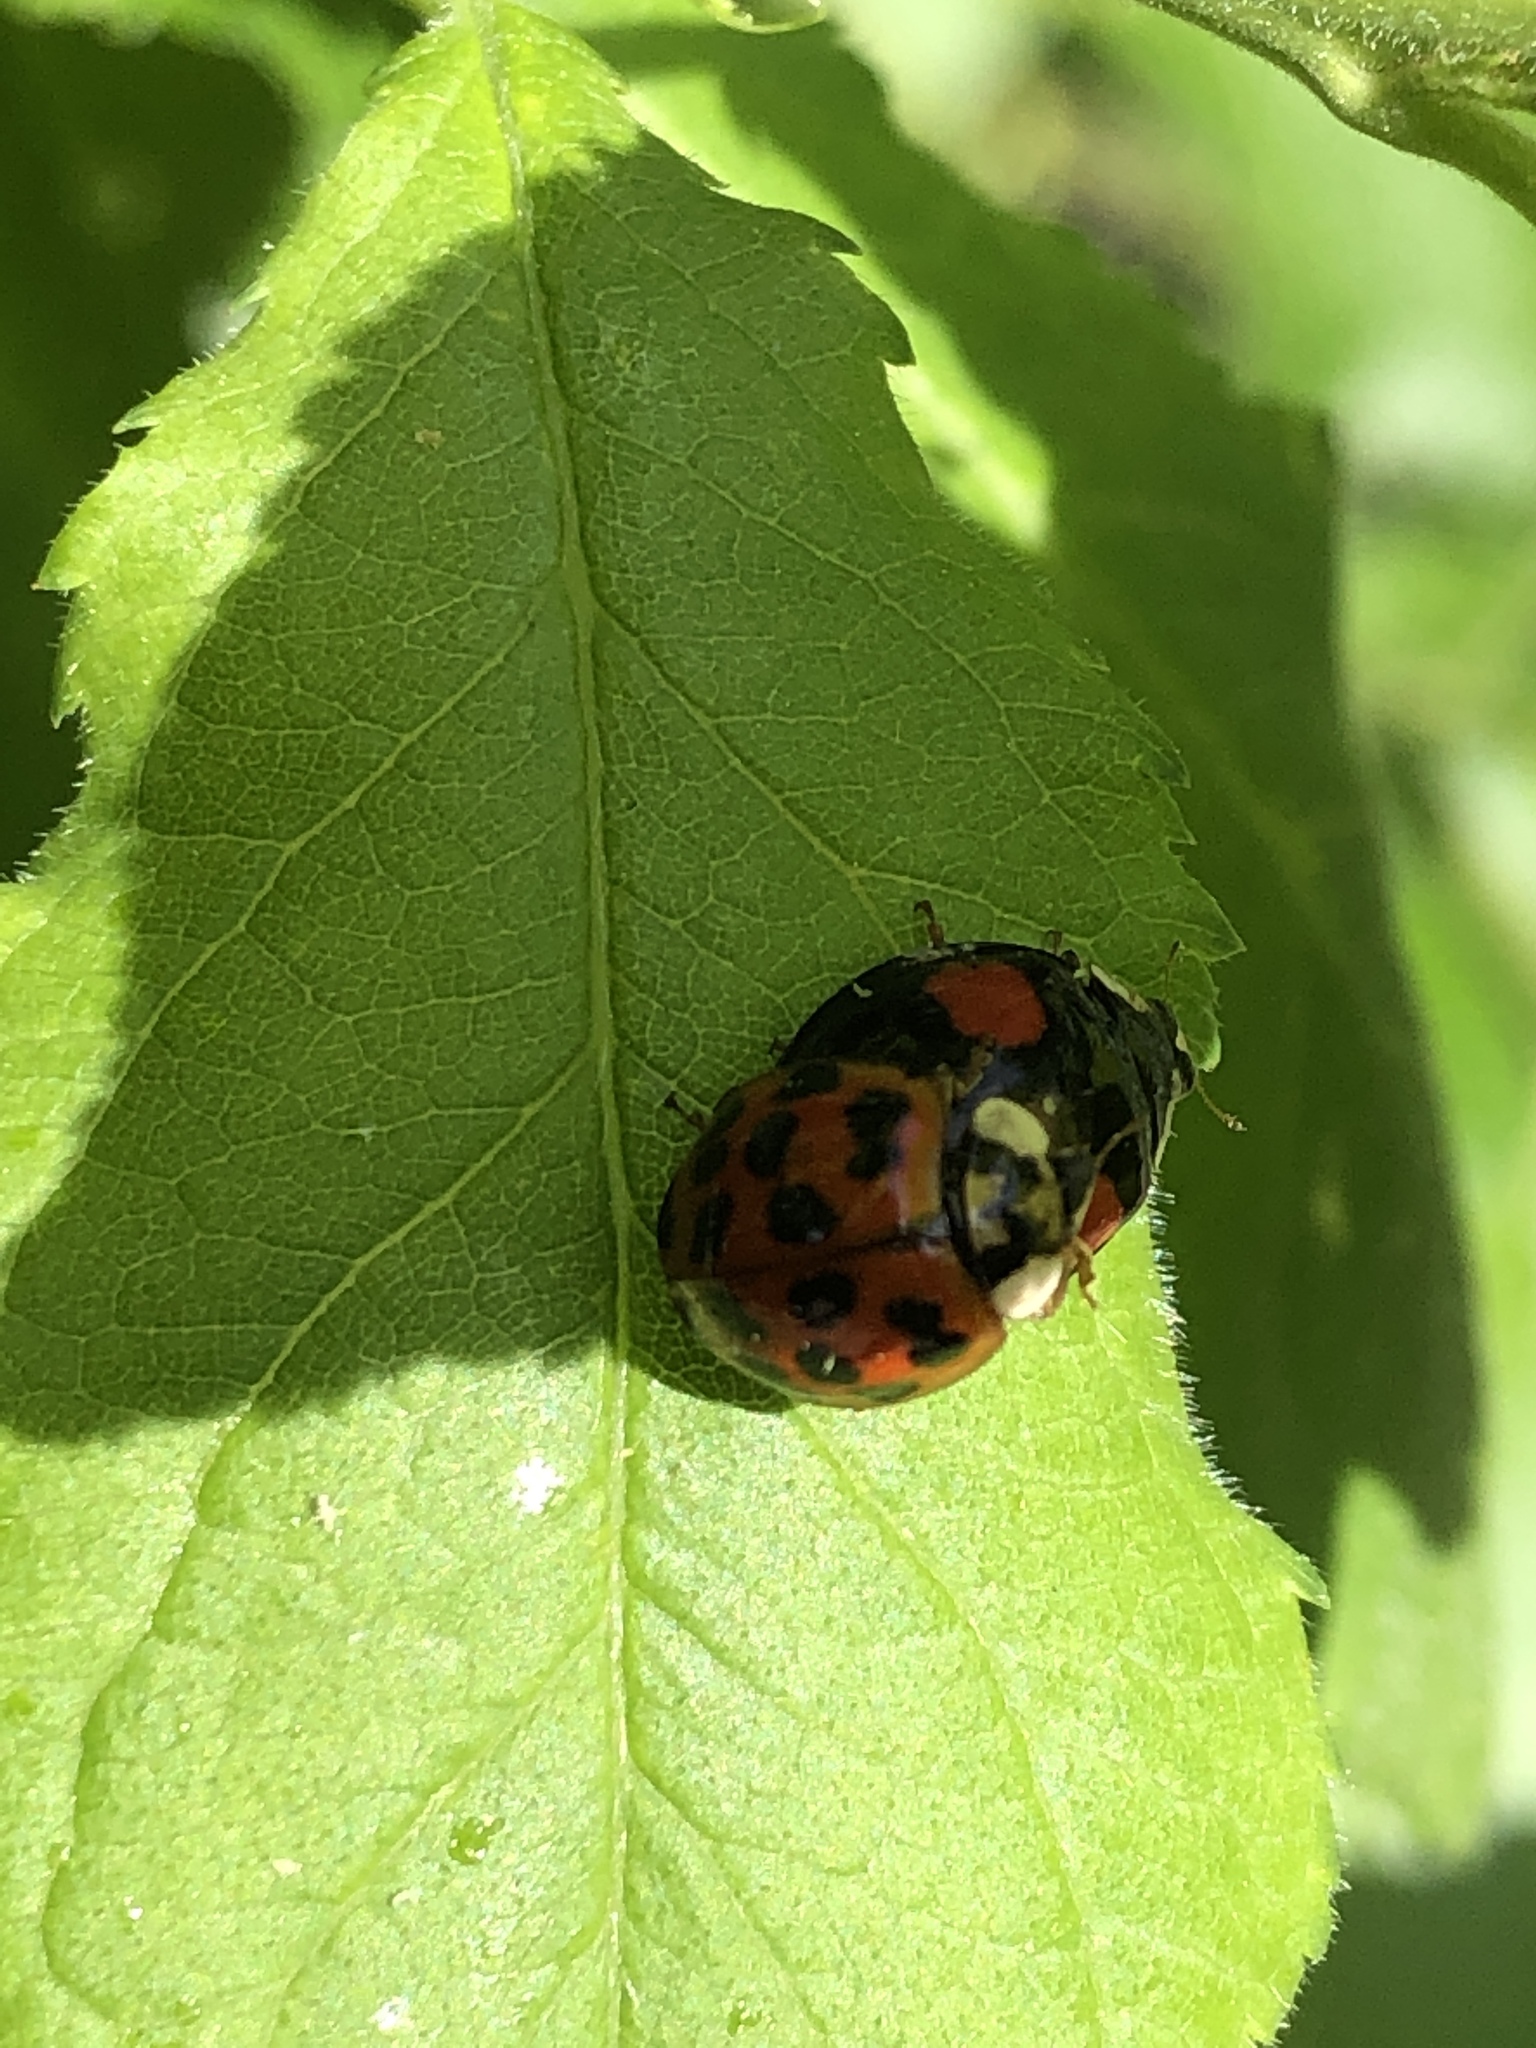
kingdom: Animalia
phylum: Arthropoda
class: Insecta
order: Coleoptera
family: Coccinellidae
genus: Harmonia
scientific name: Harmonia axyridis
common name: Harlequin ladybird
